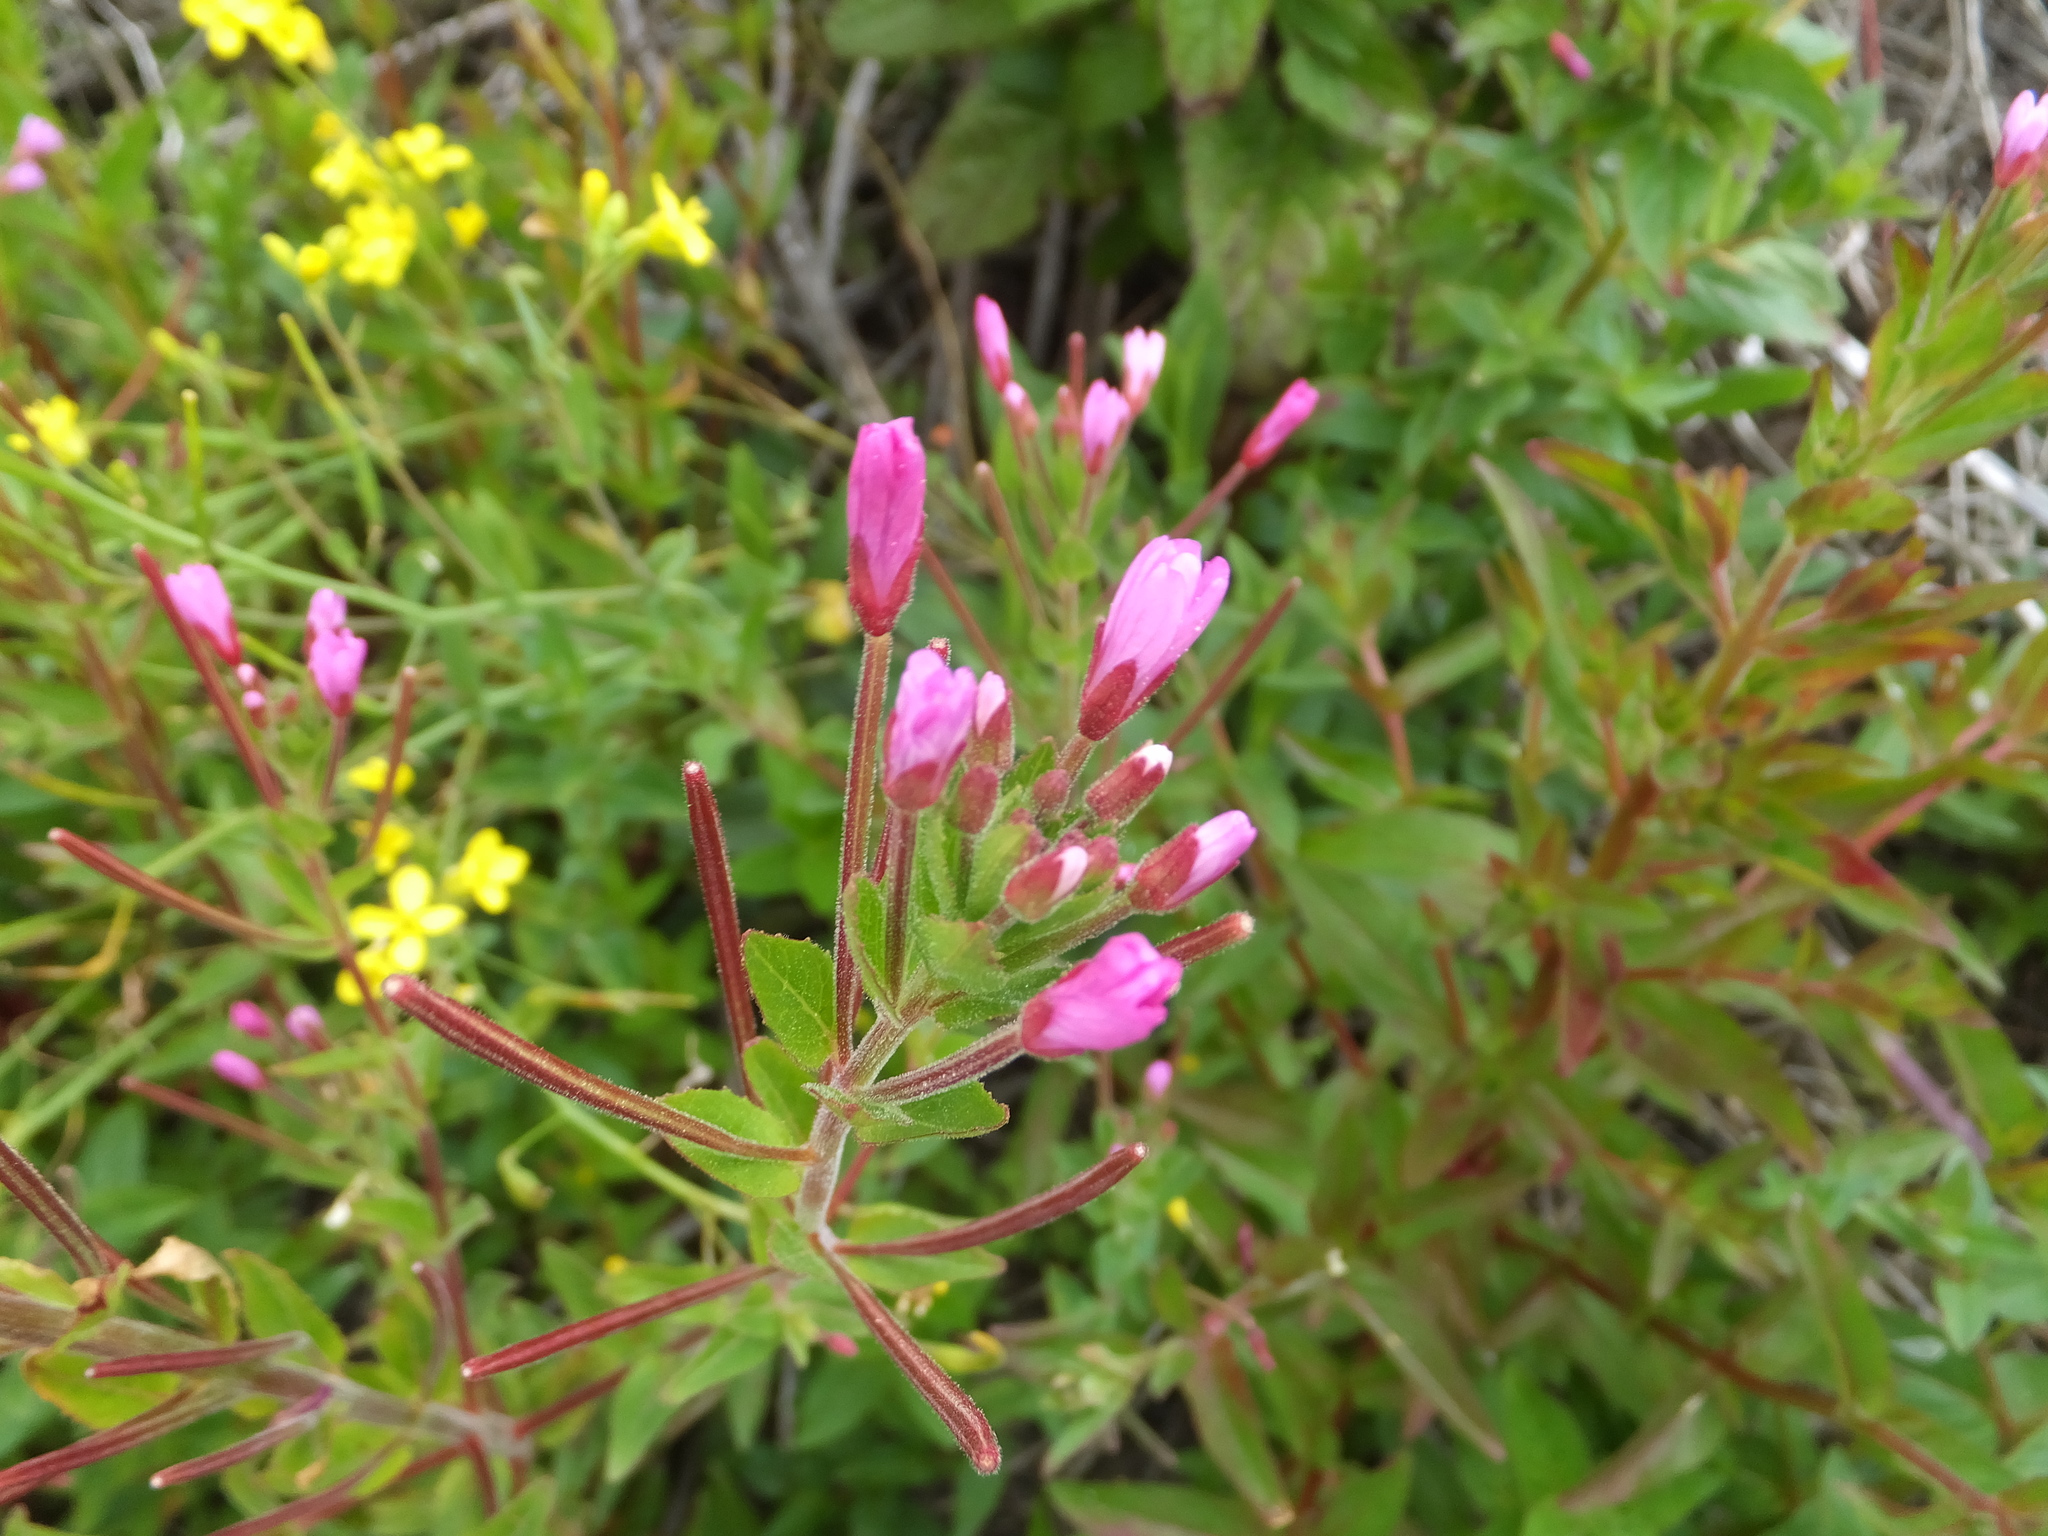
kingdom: Plantae
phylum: Tracheophyta
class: Magnoliopsida
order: Myrtales
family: Onagraceae
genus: Epilobium
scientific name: Epilobium ciliatum
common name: American willowherb
